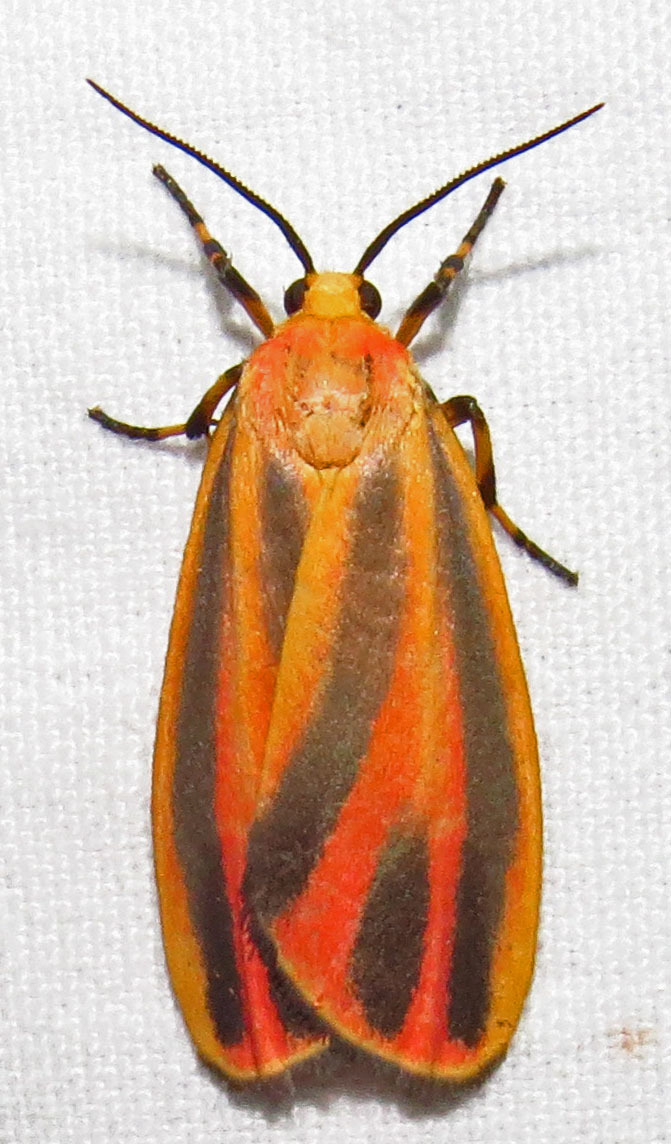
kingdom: Animalia
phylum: Arthropoda
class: Insecta
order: Lepidoptera
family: Erebidae
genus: Hypoprepia
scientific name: Hypoprepia fucosa
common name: Painted lichen moth
